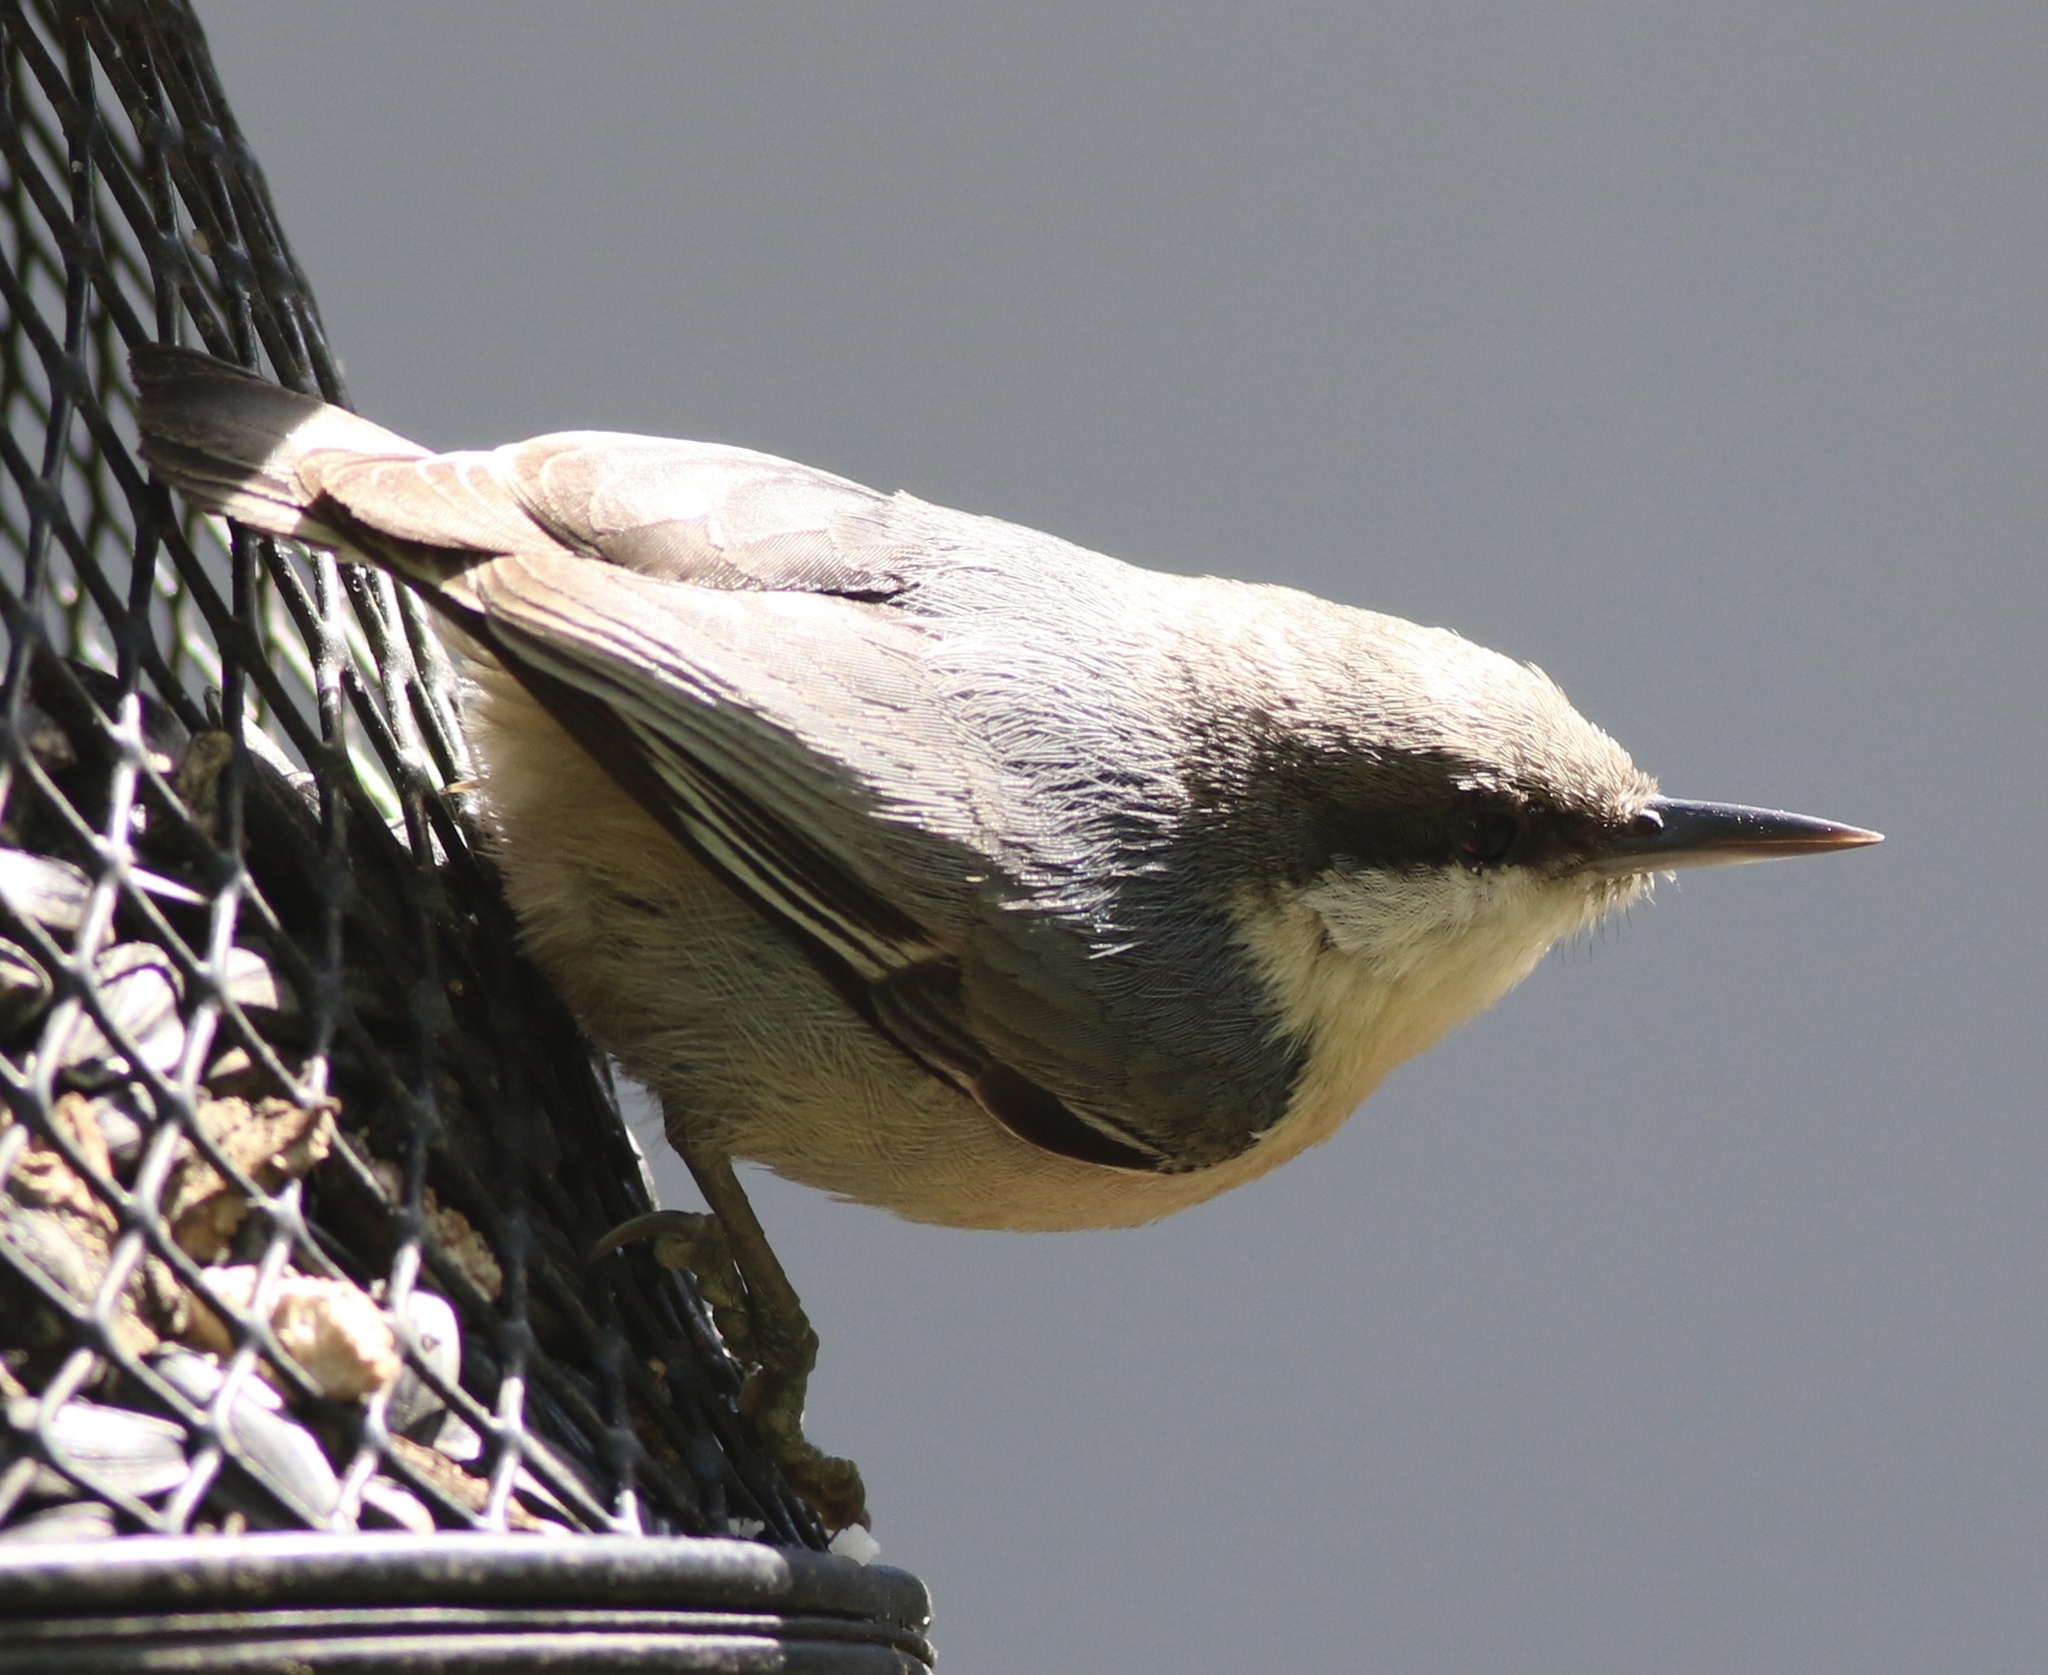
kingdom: Animalia
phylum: Chordata
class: Aves
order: Passeriformes
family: Sittidae
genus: Sitta
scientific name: Sitta pygmaea
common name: Pygmy nuthatch
